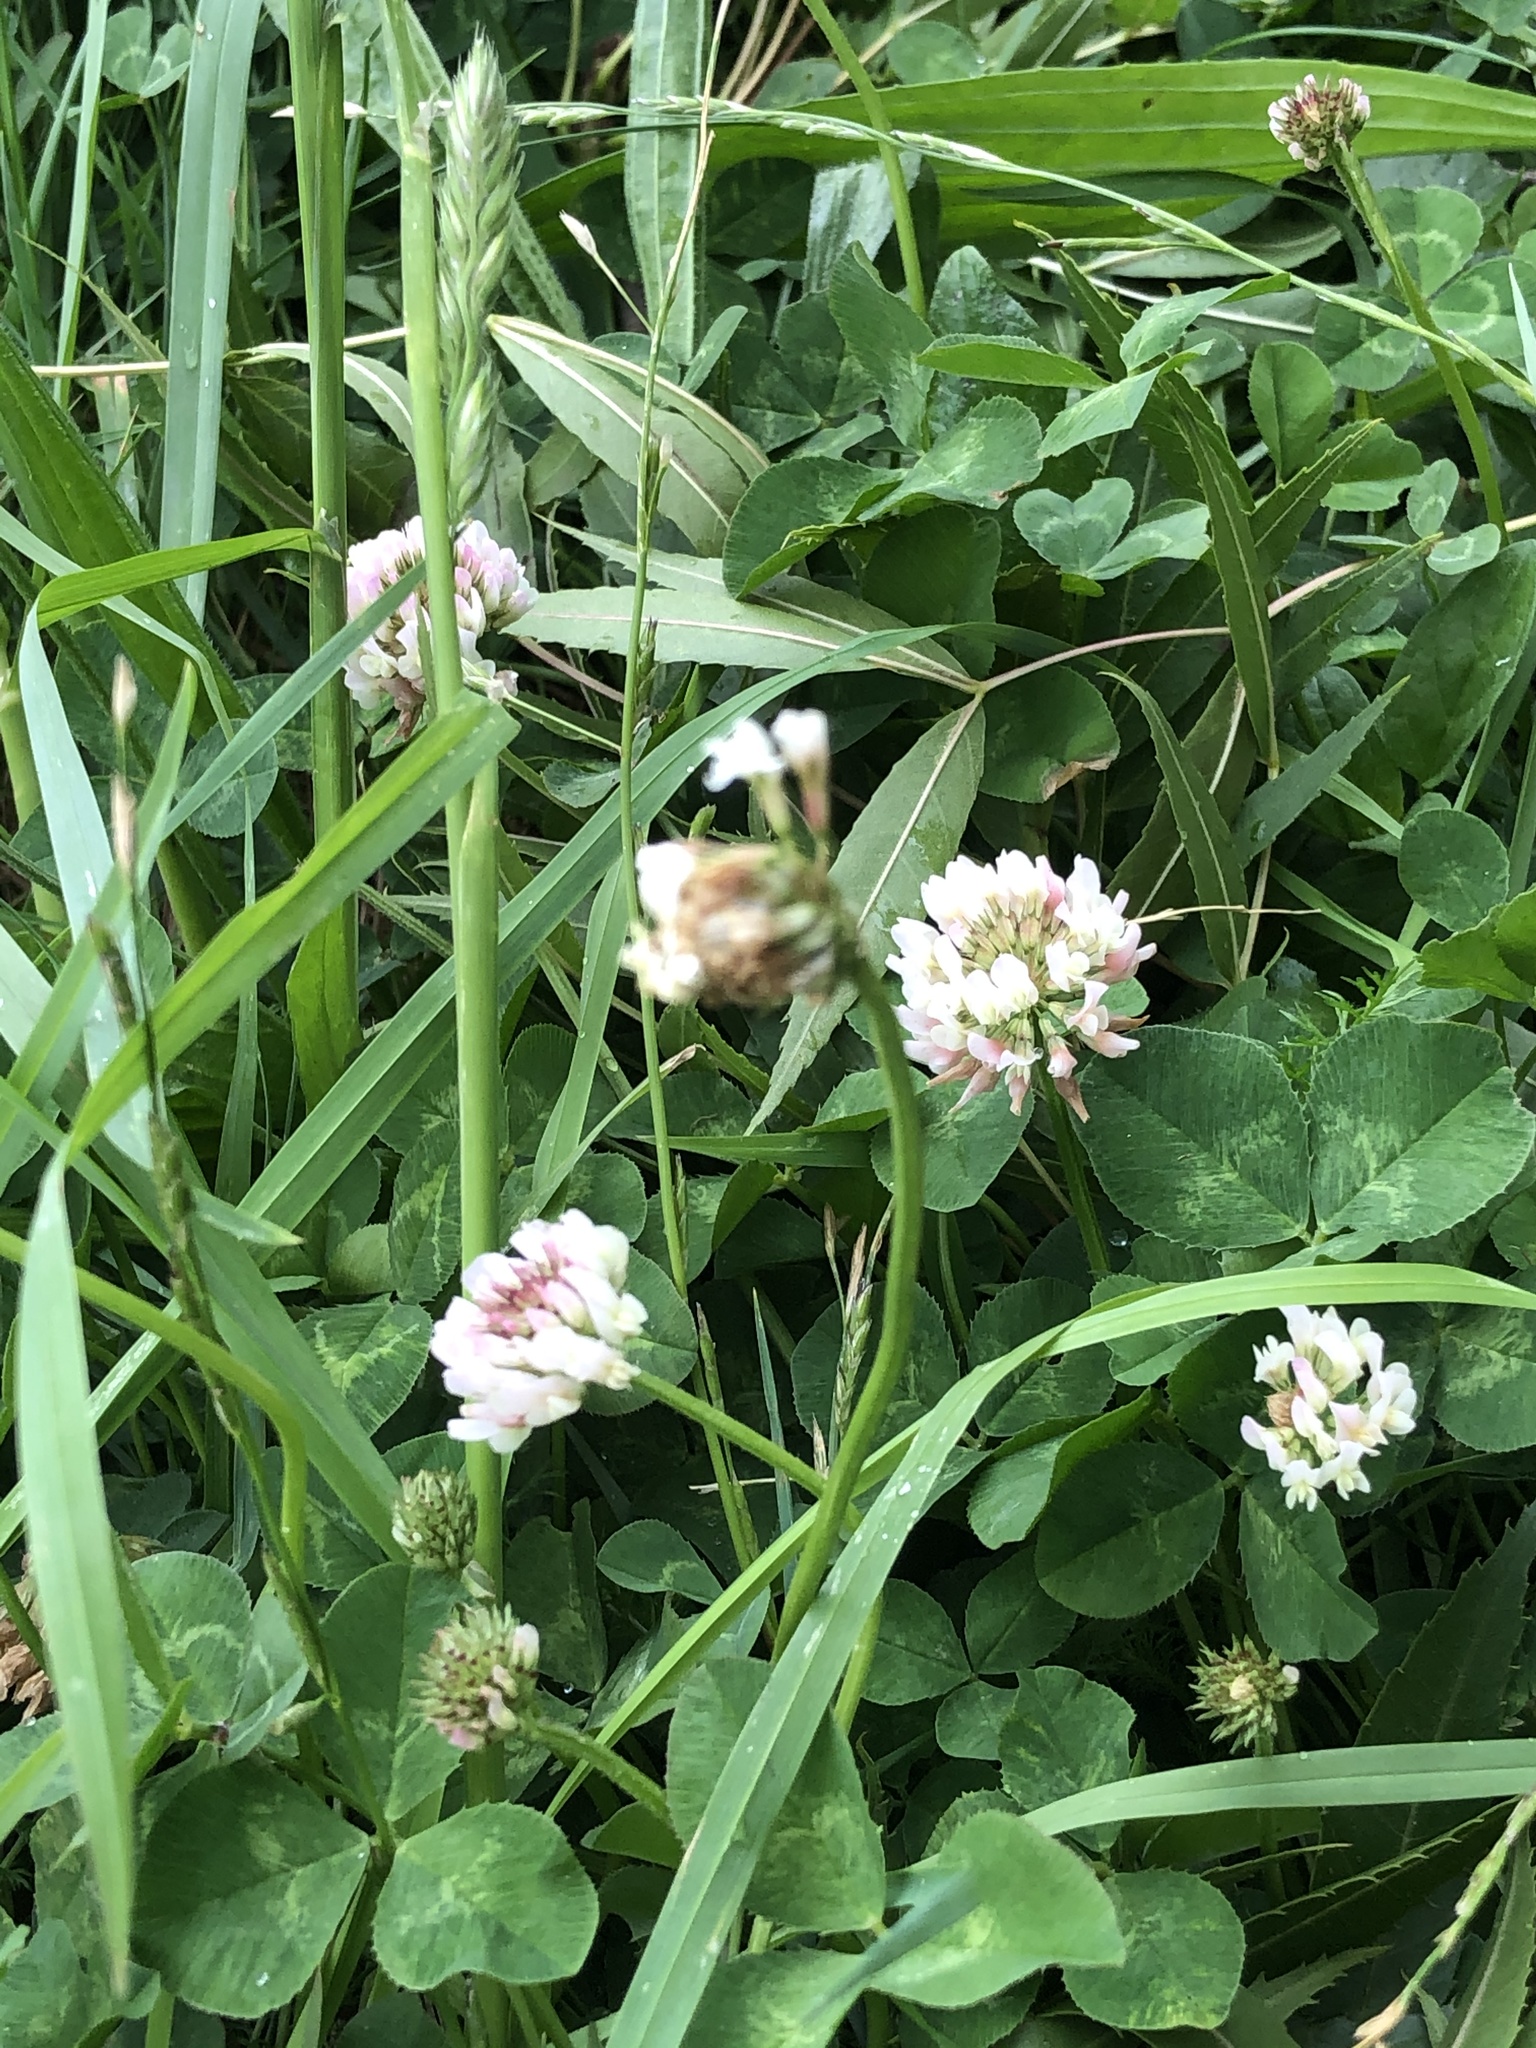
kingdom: Plantae
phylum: Tracheophyta
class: Magnoliopsida
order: Fabales
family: Fabaceae
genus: Trifolium
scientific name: Trifolium repens
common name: White clover
